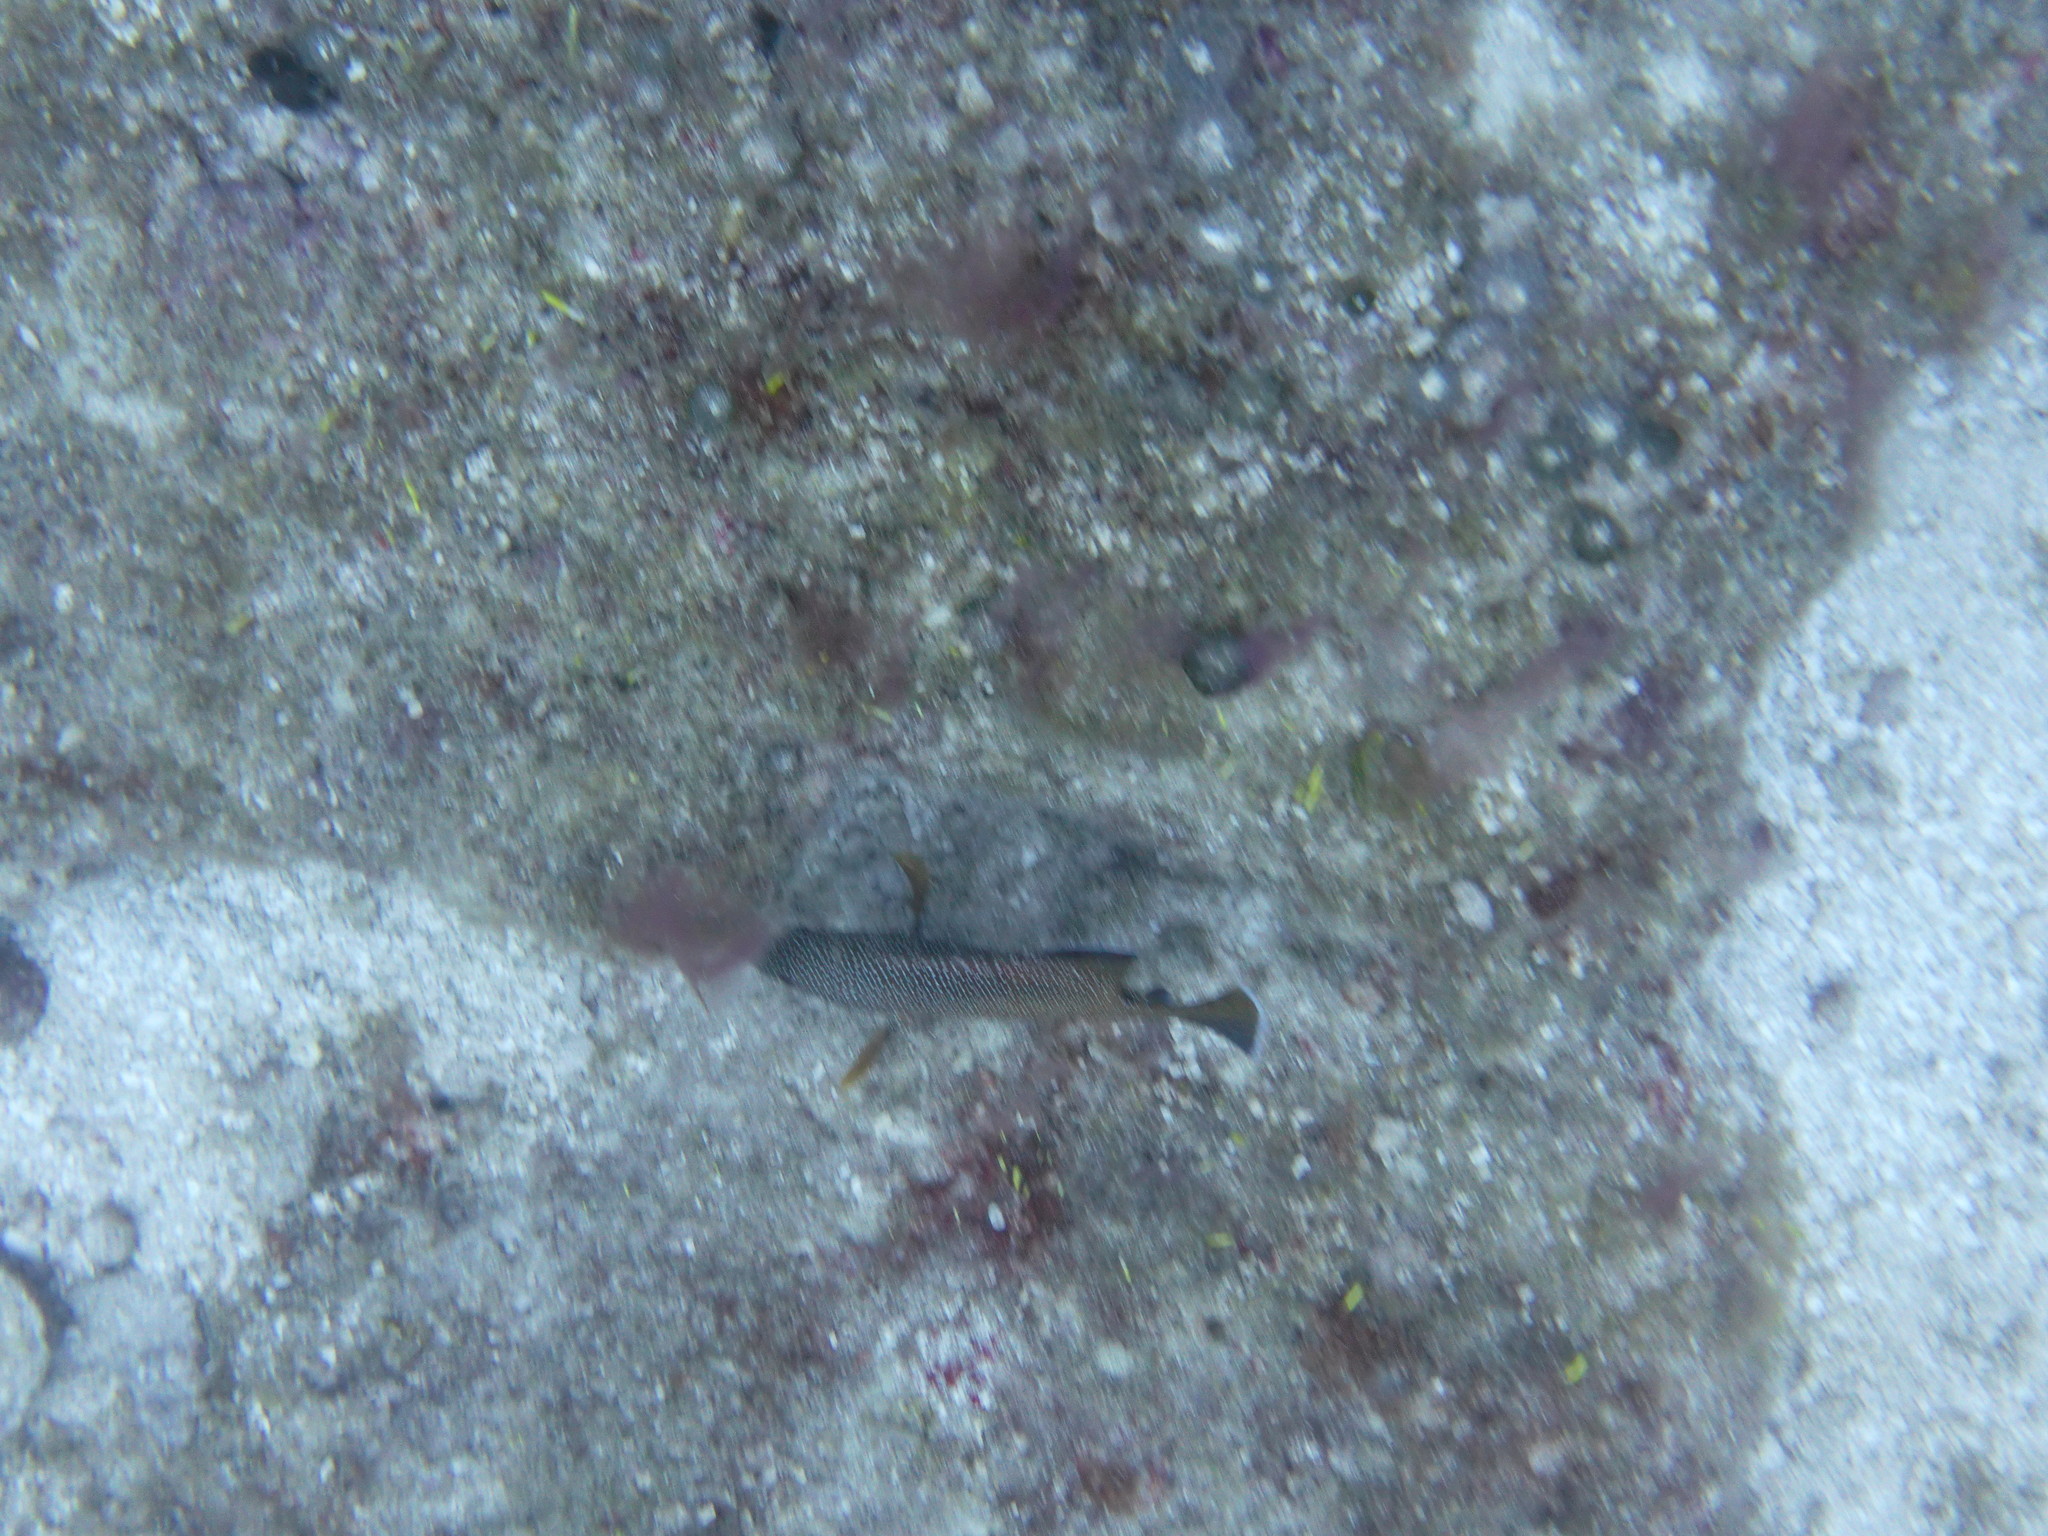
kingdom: Animalia
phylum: Chordata
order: Perciformes
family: Serranidae
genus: Cephalopholis
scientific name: Cephalopholis fulva
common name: Butterfish
